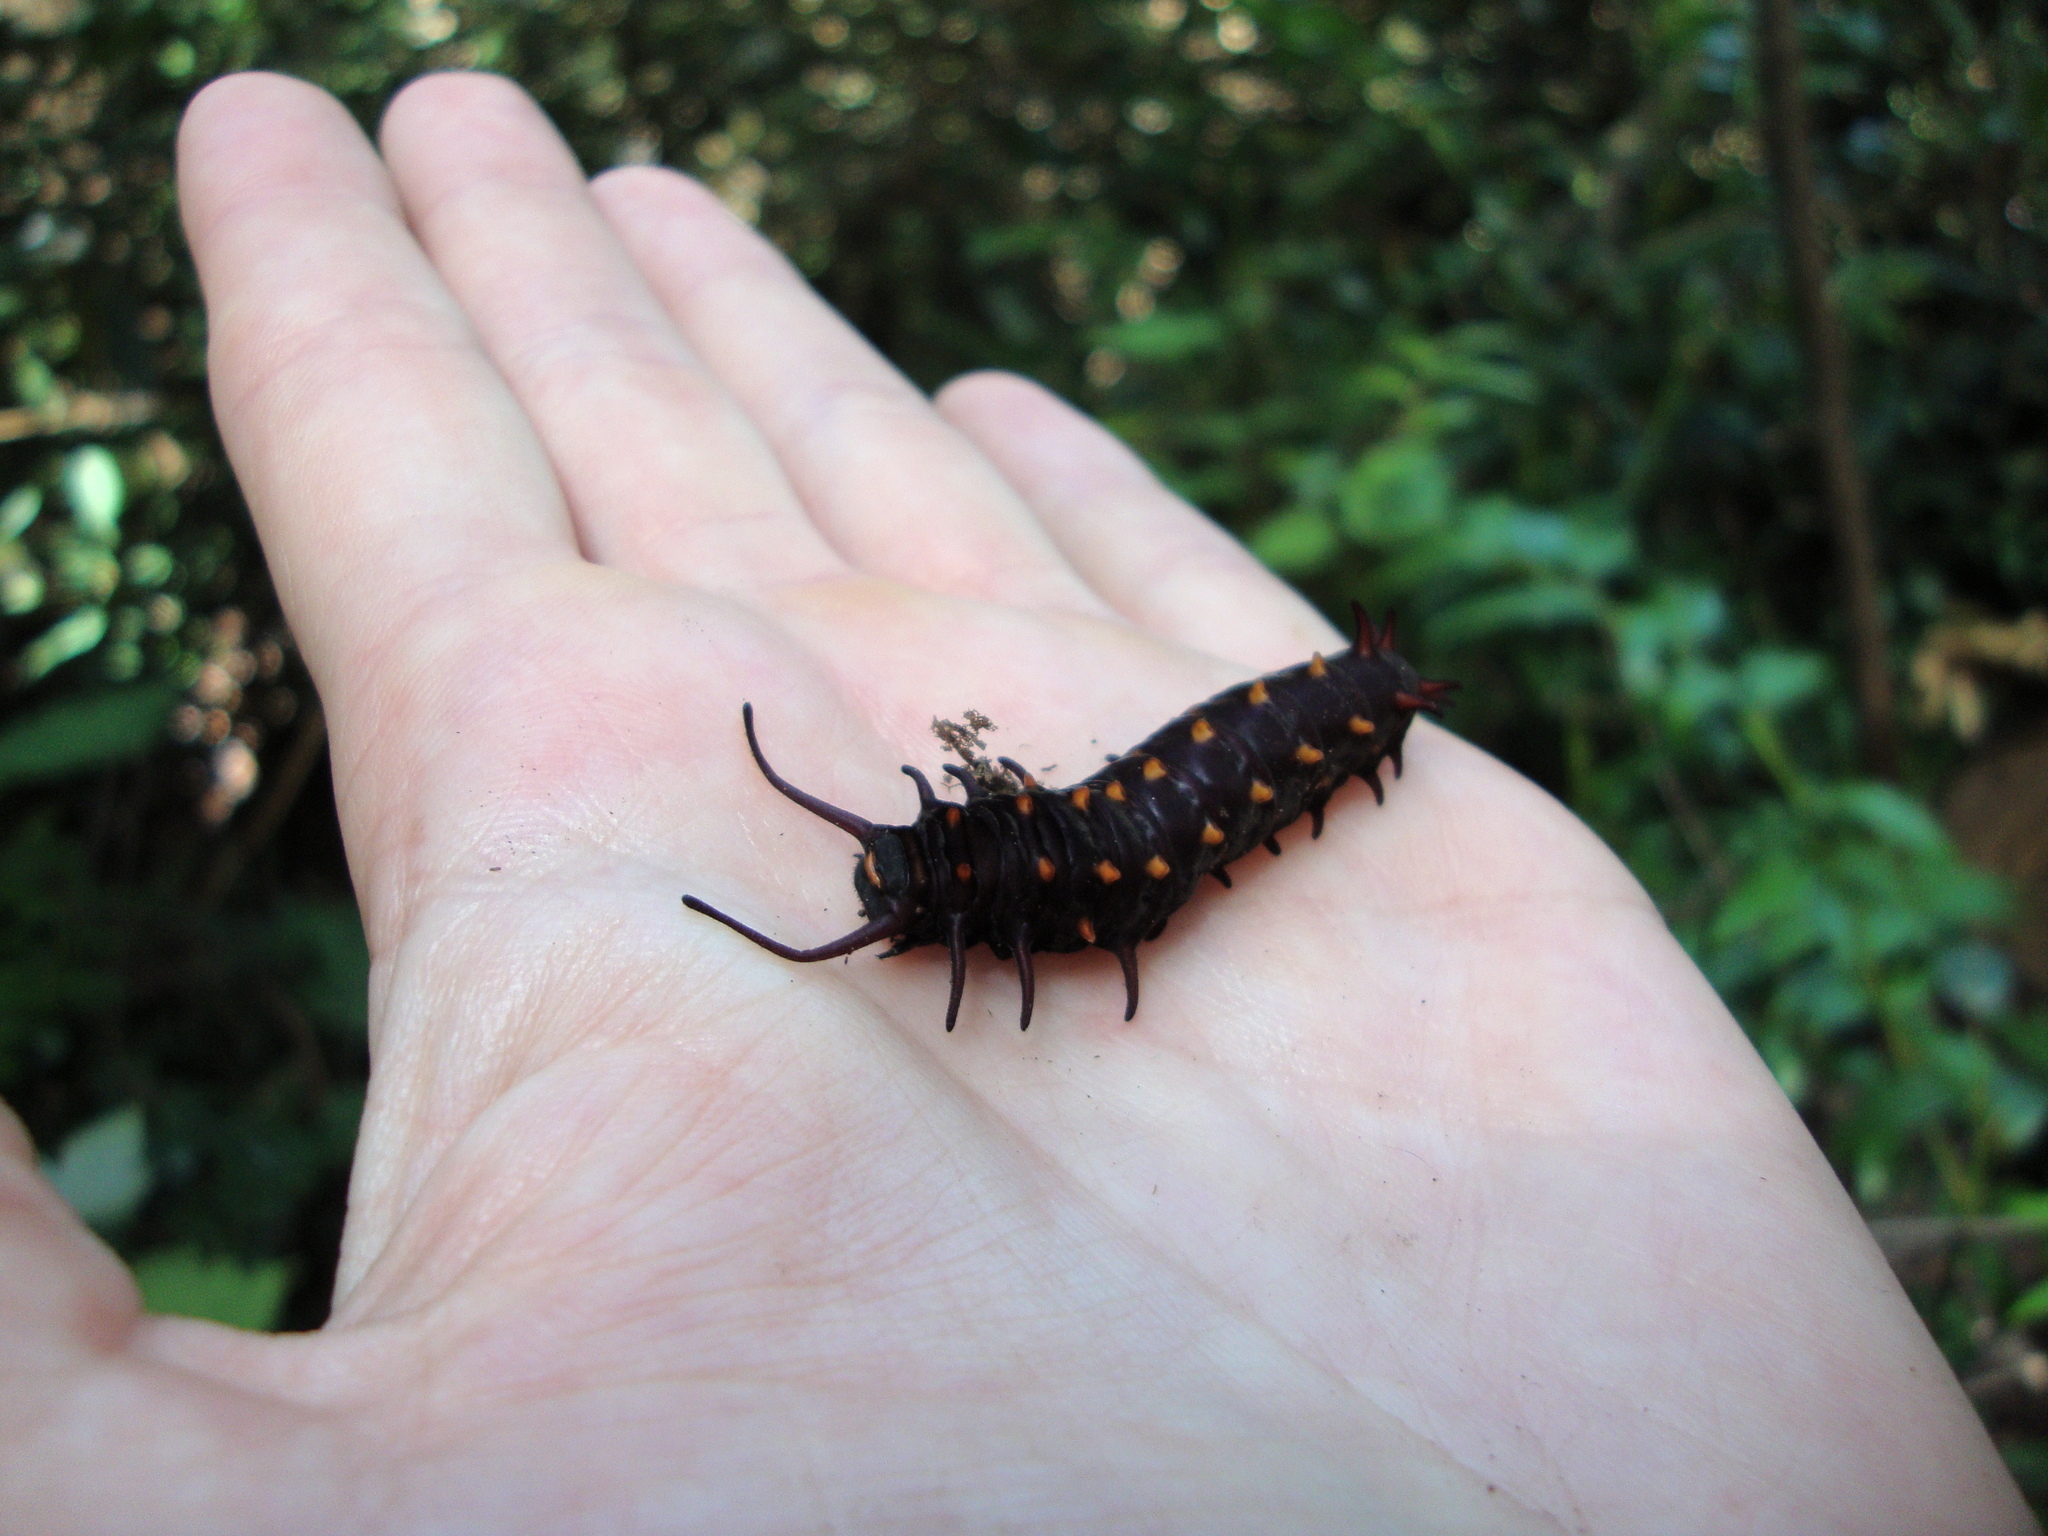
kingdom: Animalia
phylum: Arthropoda
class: Insecta
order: Lepidoptera
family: Papilionidae
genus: Battus
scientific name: Battus philenor
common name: Pipevine swallowtail
